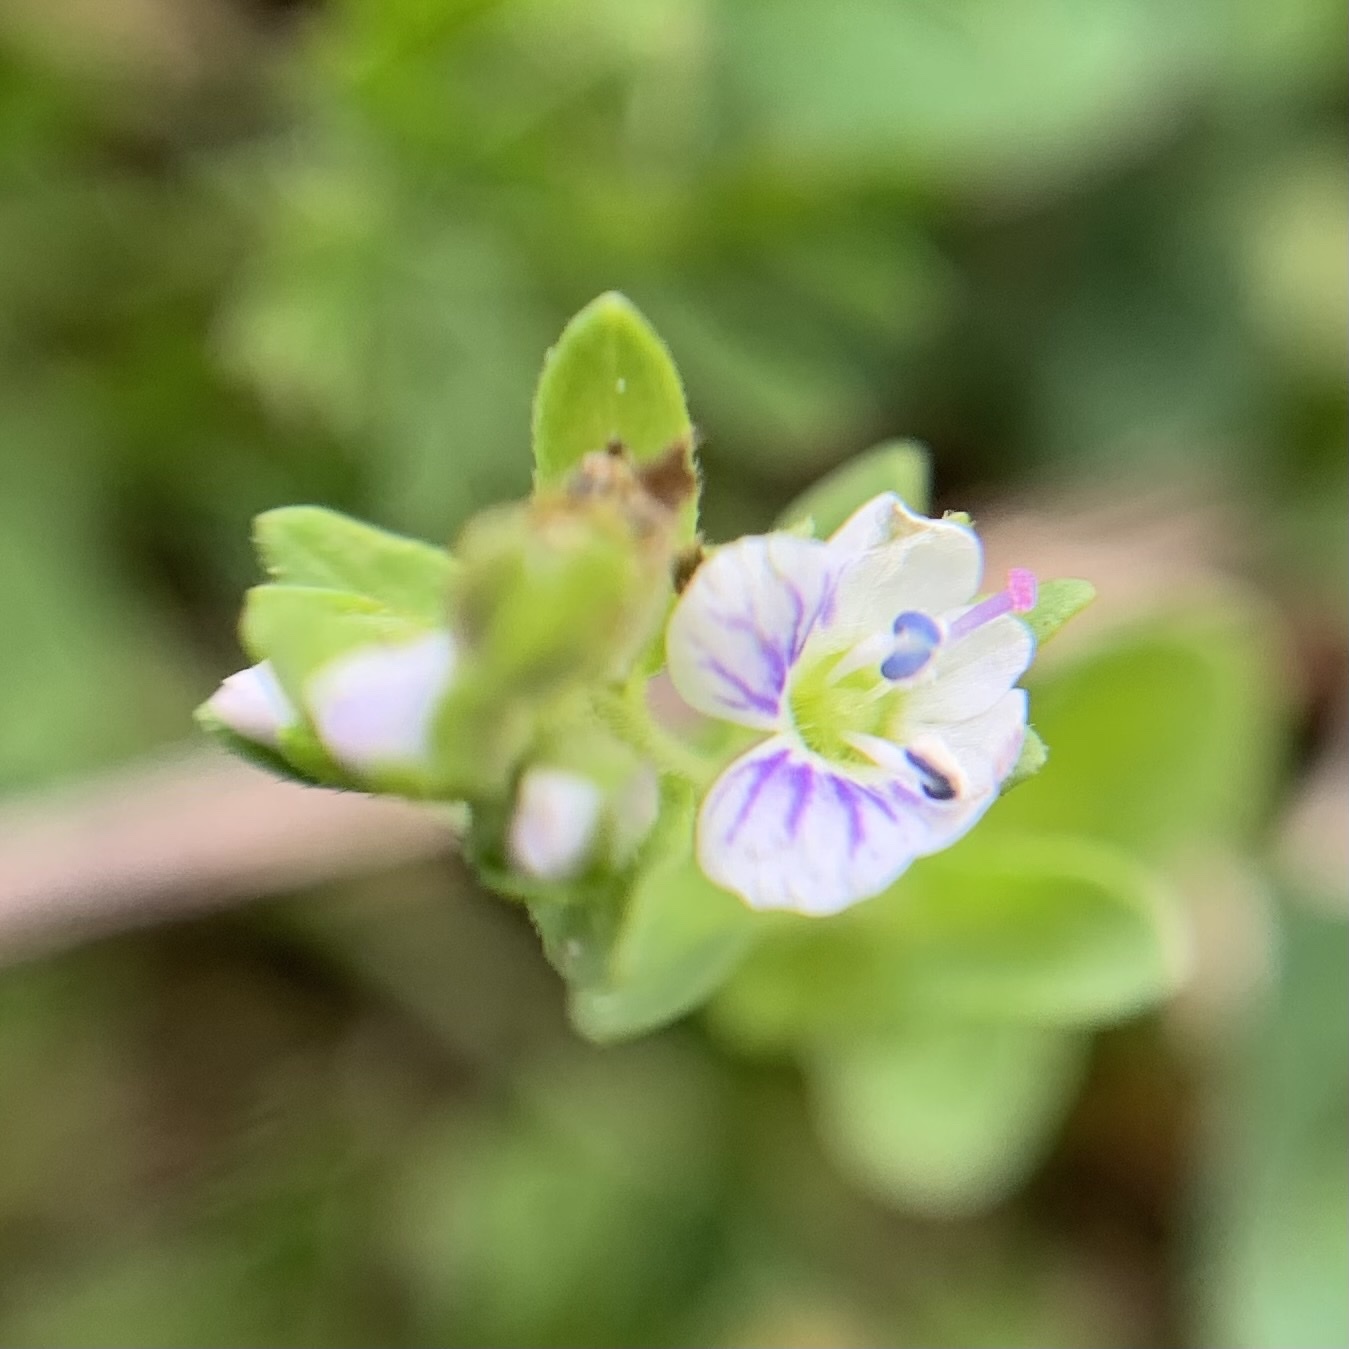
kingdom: Plantae
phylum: Tracheophyta
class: Magnoliopsida
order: Lamiales
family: Plantaginaceae
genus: Veronica
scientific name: Veronica serpyllifolia
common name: Thyme-leaved speedwell
